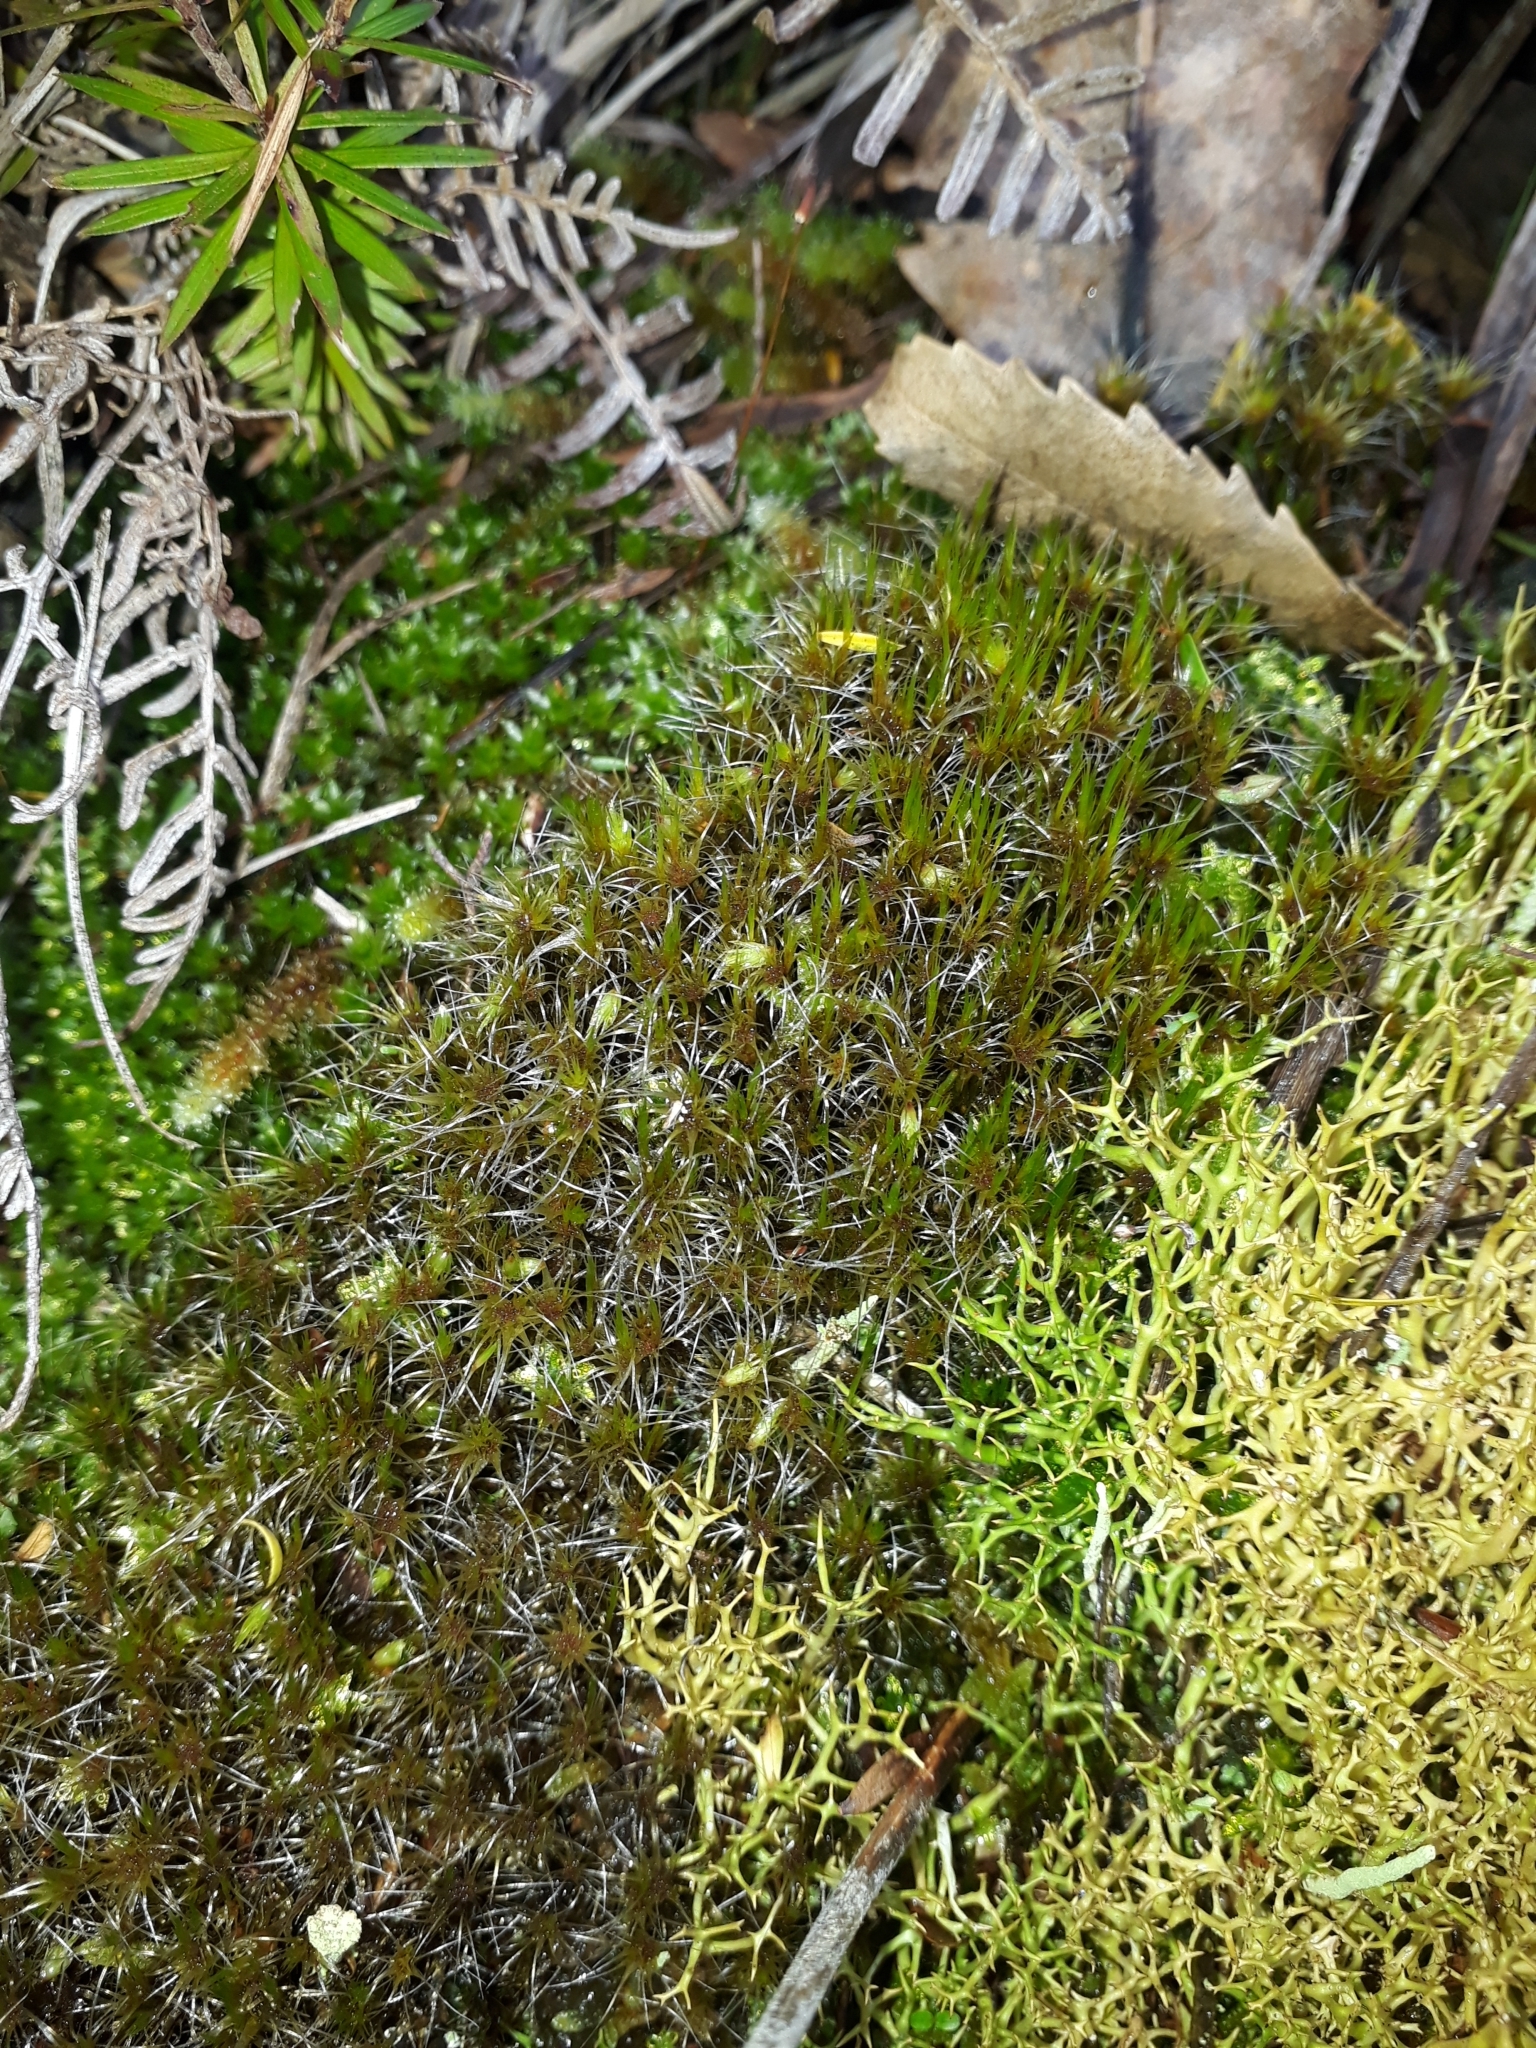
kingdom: Plantae
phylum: Bryophyta
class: Bryopsida
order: Dicranales
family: Leucobryaceae
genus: Campylopus
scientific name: Campylopus introflexus
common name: Heath star moss
